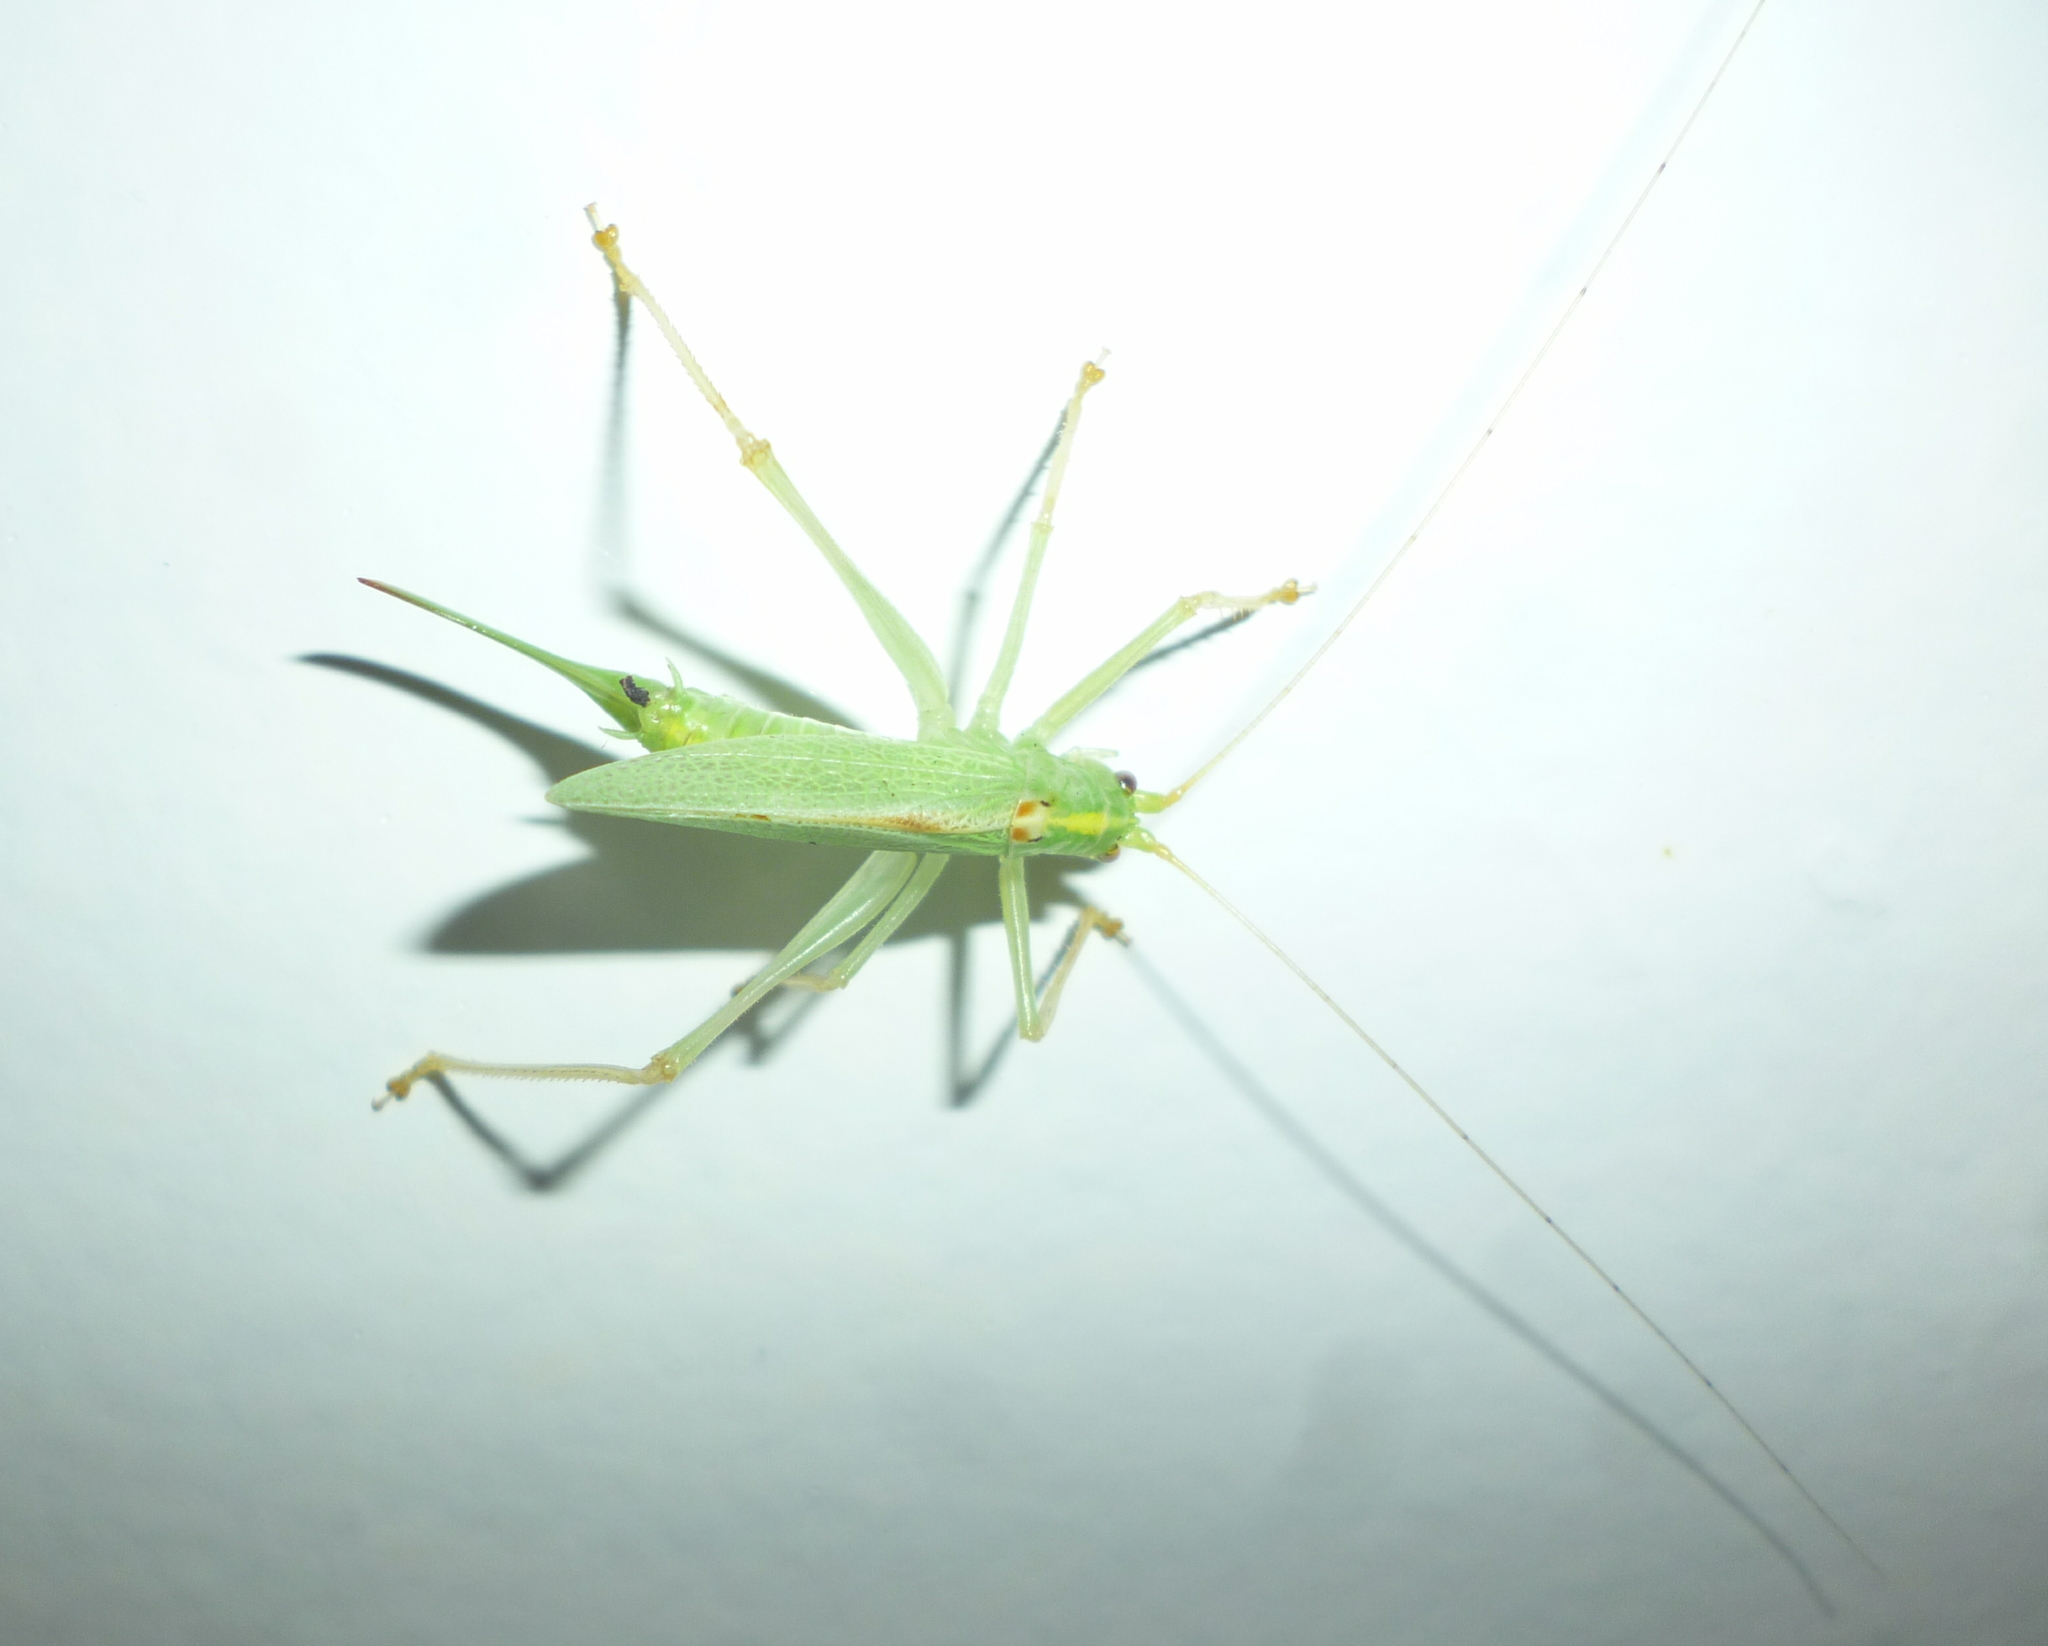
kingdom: Animalia
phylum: Arthropoda
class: Insecta
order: Orthoptera
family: Tettigoniidae
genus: Meconema
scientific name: Meconema thalassinum
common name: Oak bush-cricket
